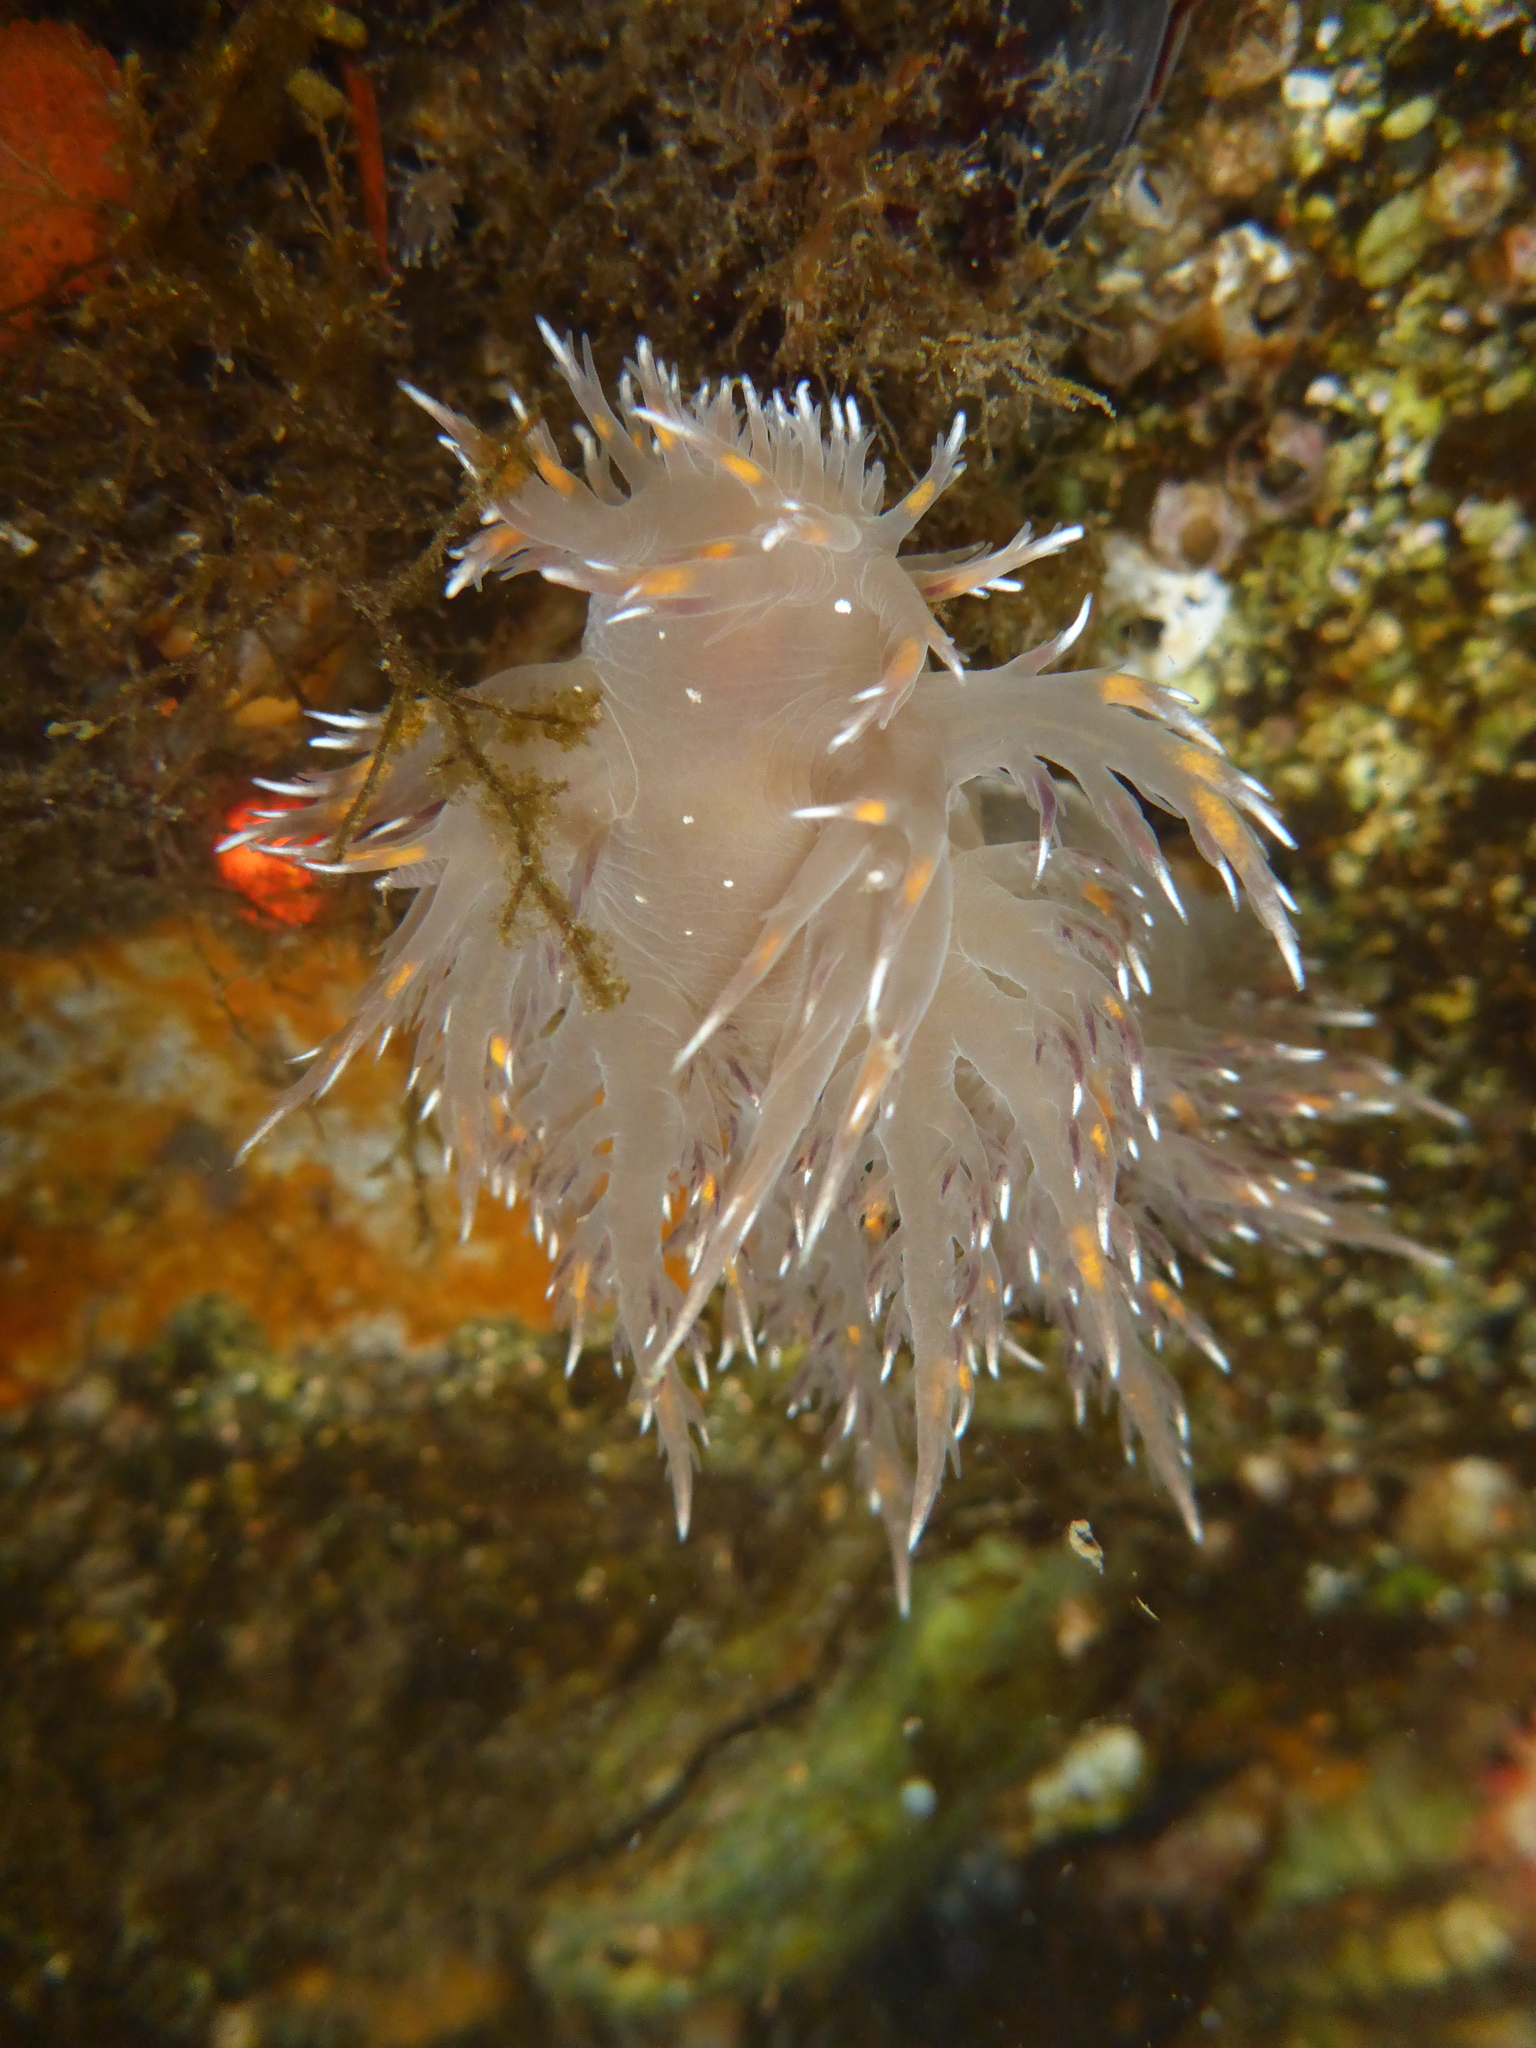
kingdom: Animalia
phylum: Mollusca
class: Gastropoda
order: Nudibranchia
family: Dendronotidae
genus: Dendronotus
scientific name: Dendronotus iris
